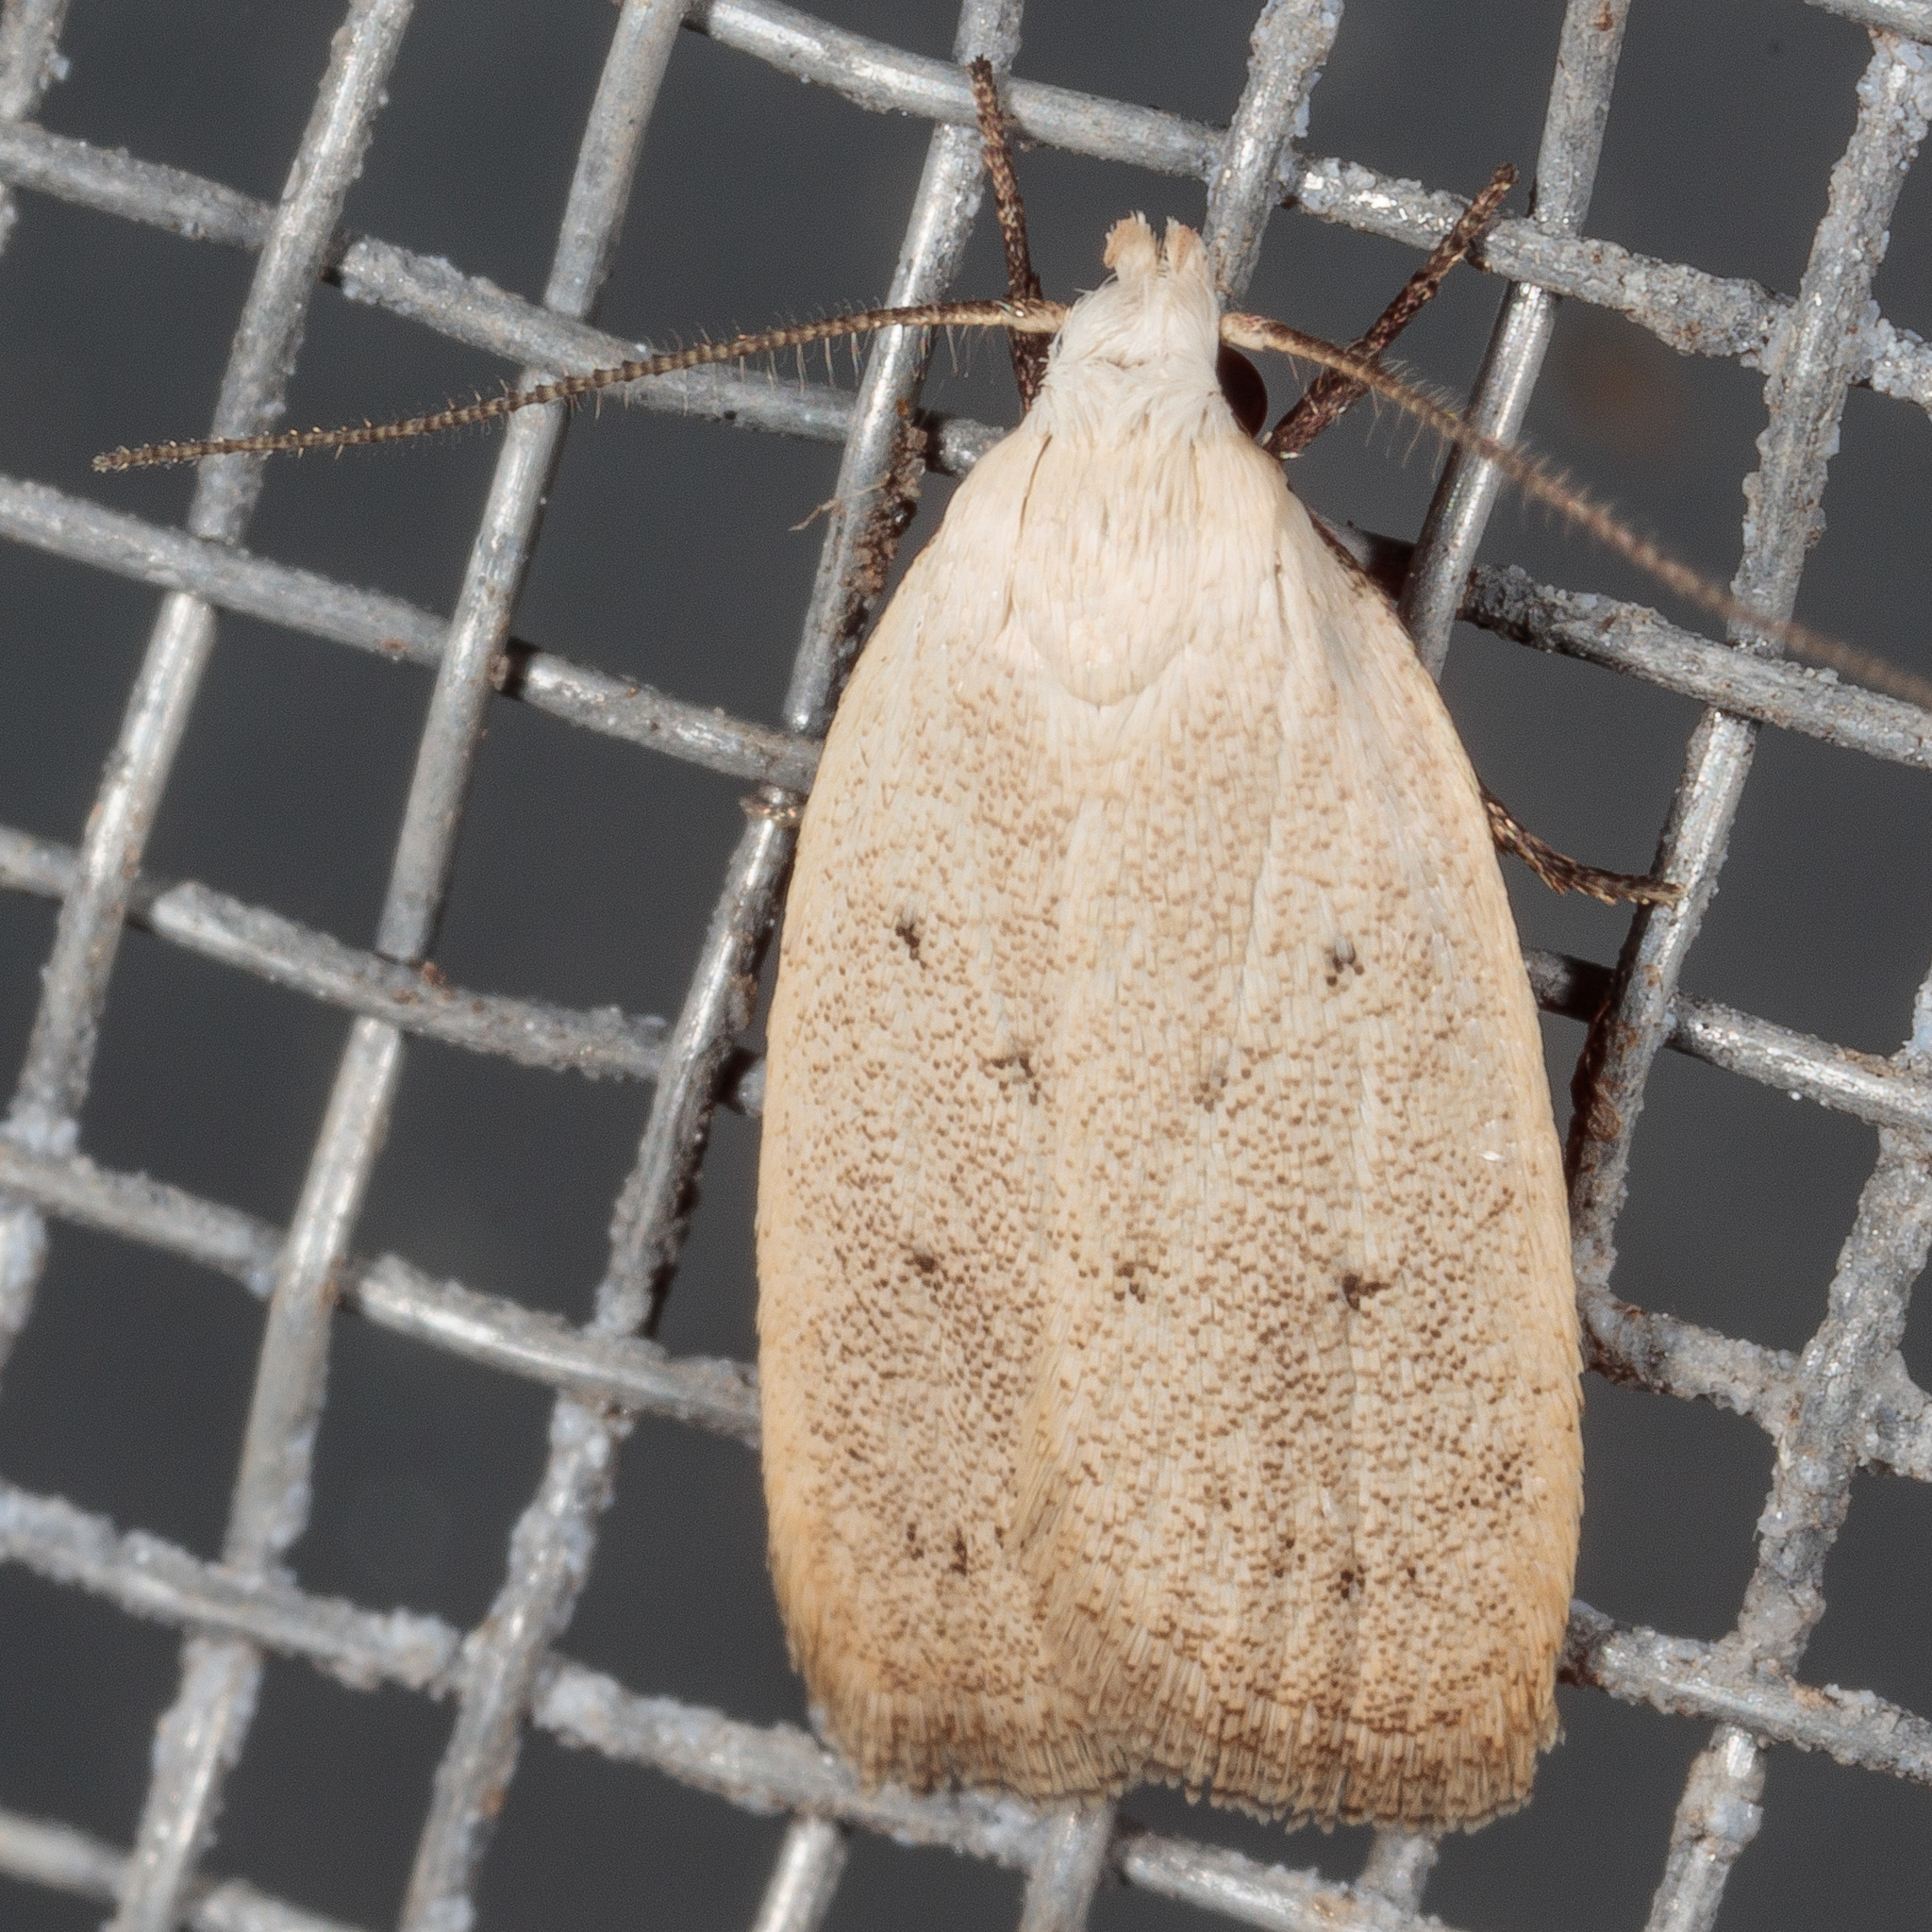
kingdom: Animalia
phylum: Arthropoda
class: Insecta
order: Lepidoptera
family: Oecophoridae
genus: Inga
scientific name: Inga cretacea
